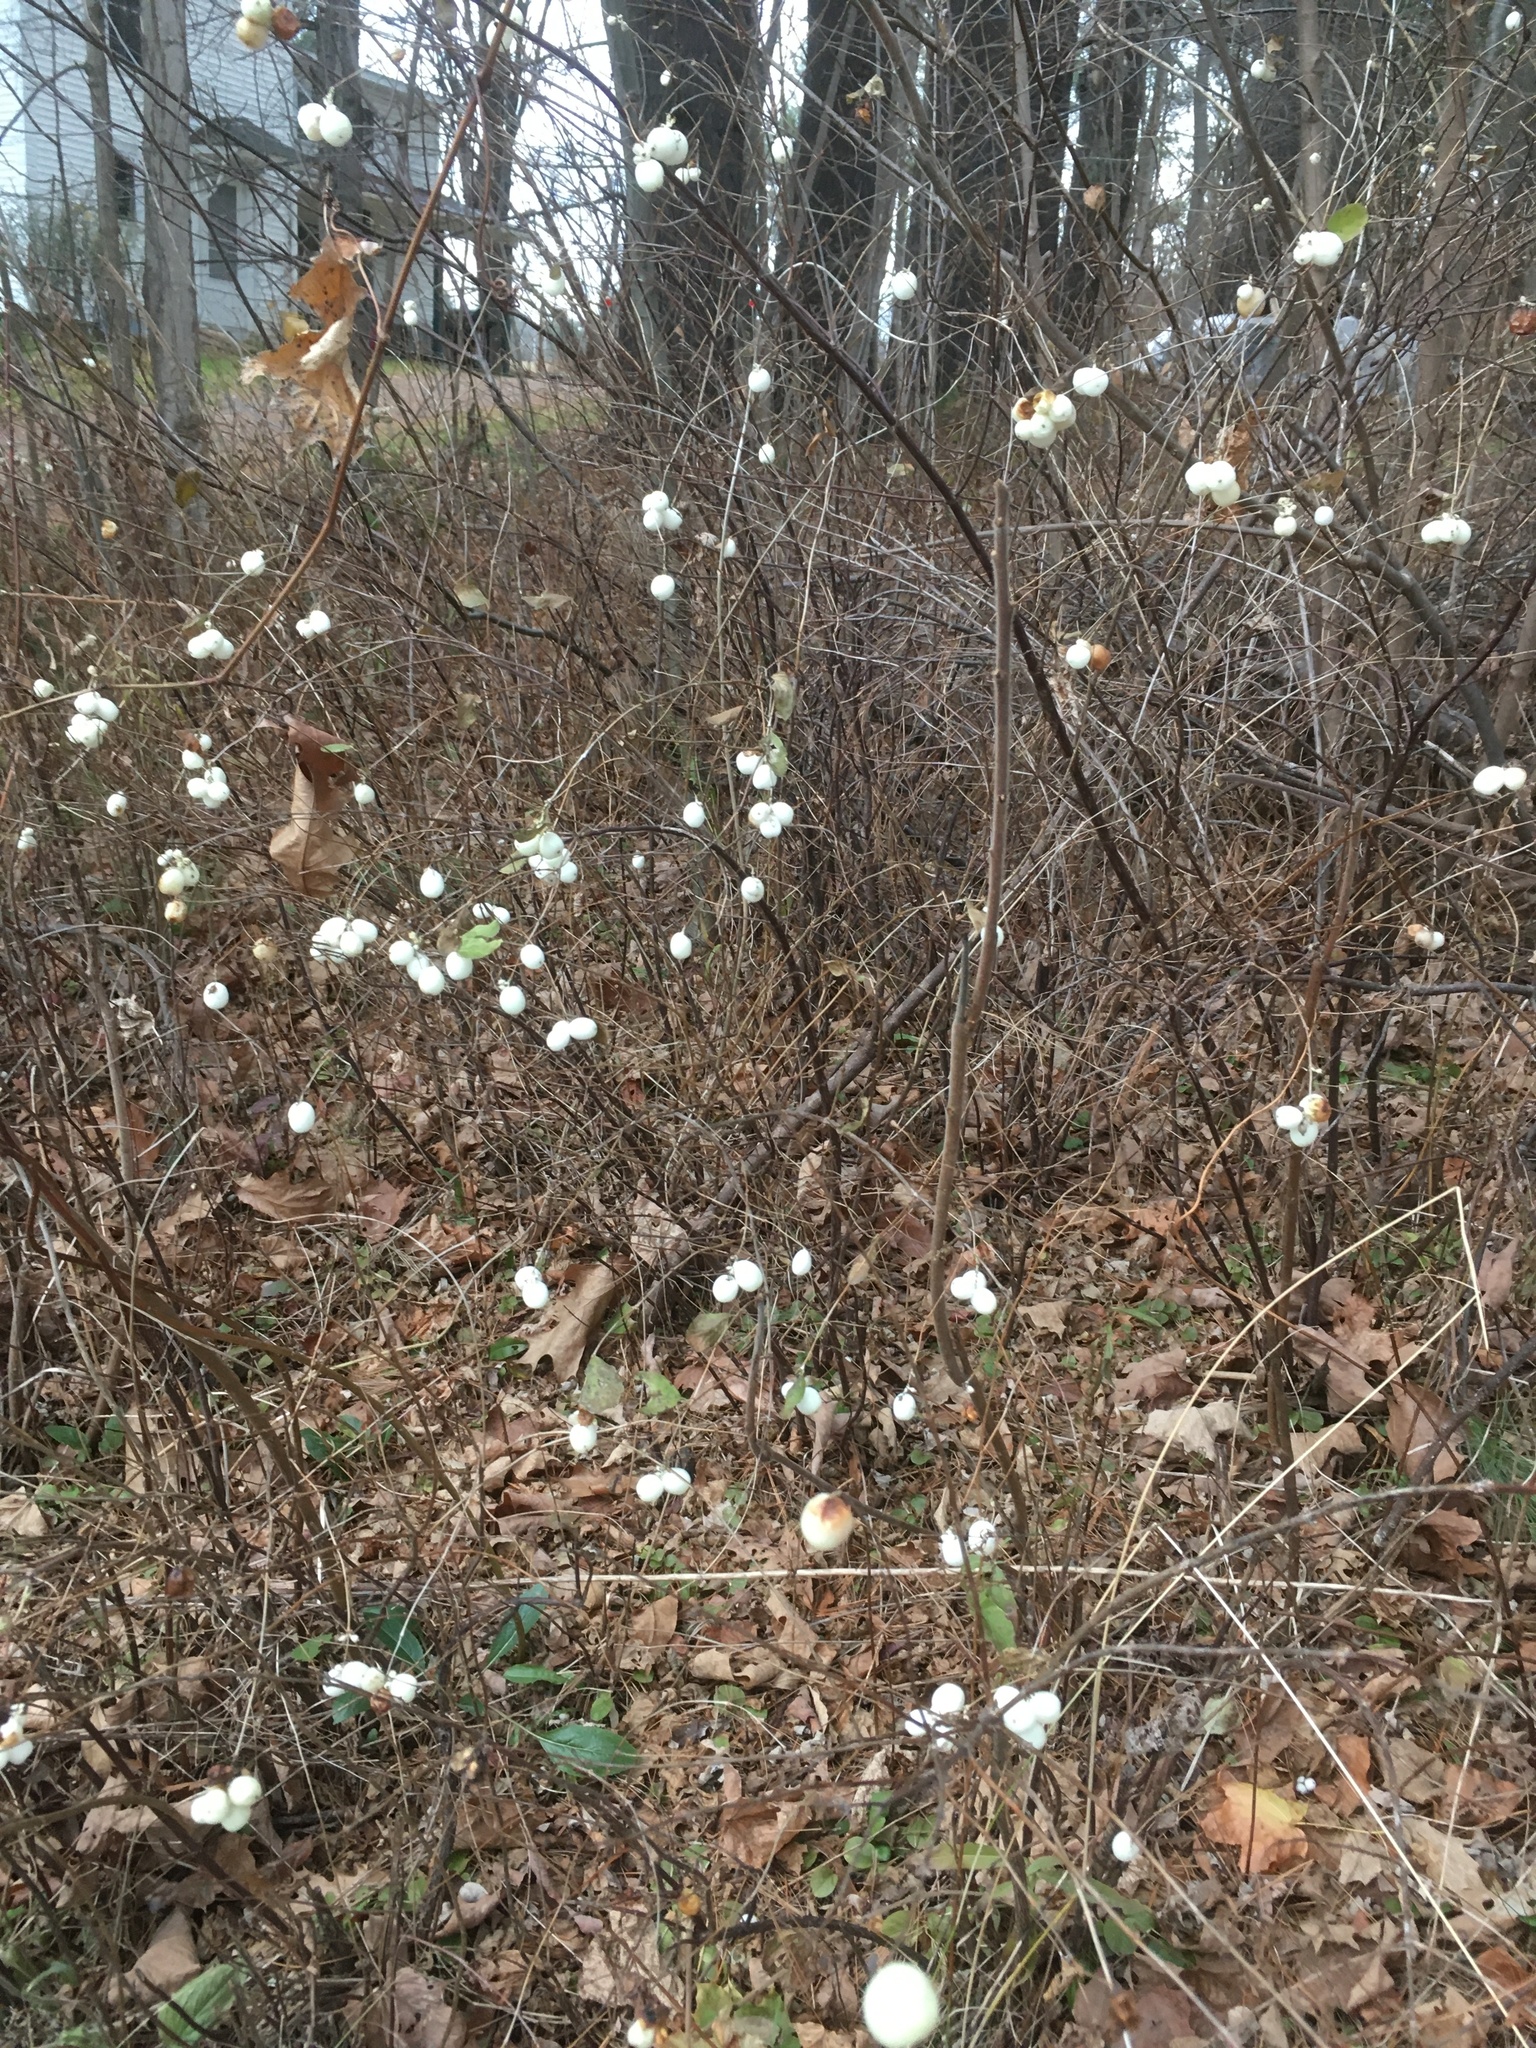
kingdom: Plantae
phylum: Tracheophyta
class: Magnoliopsida
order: Dipsacales
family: Caprifoliaceae
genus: Symphoricarpos
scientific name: Symphoricarpos albus
